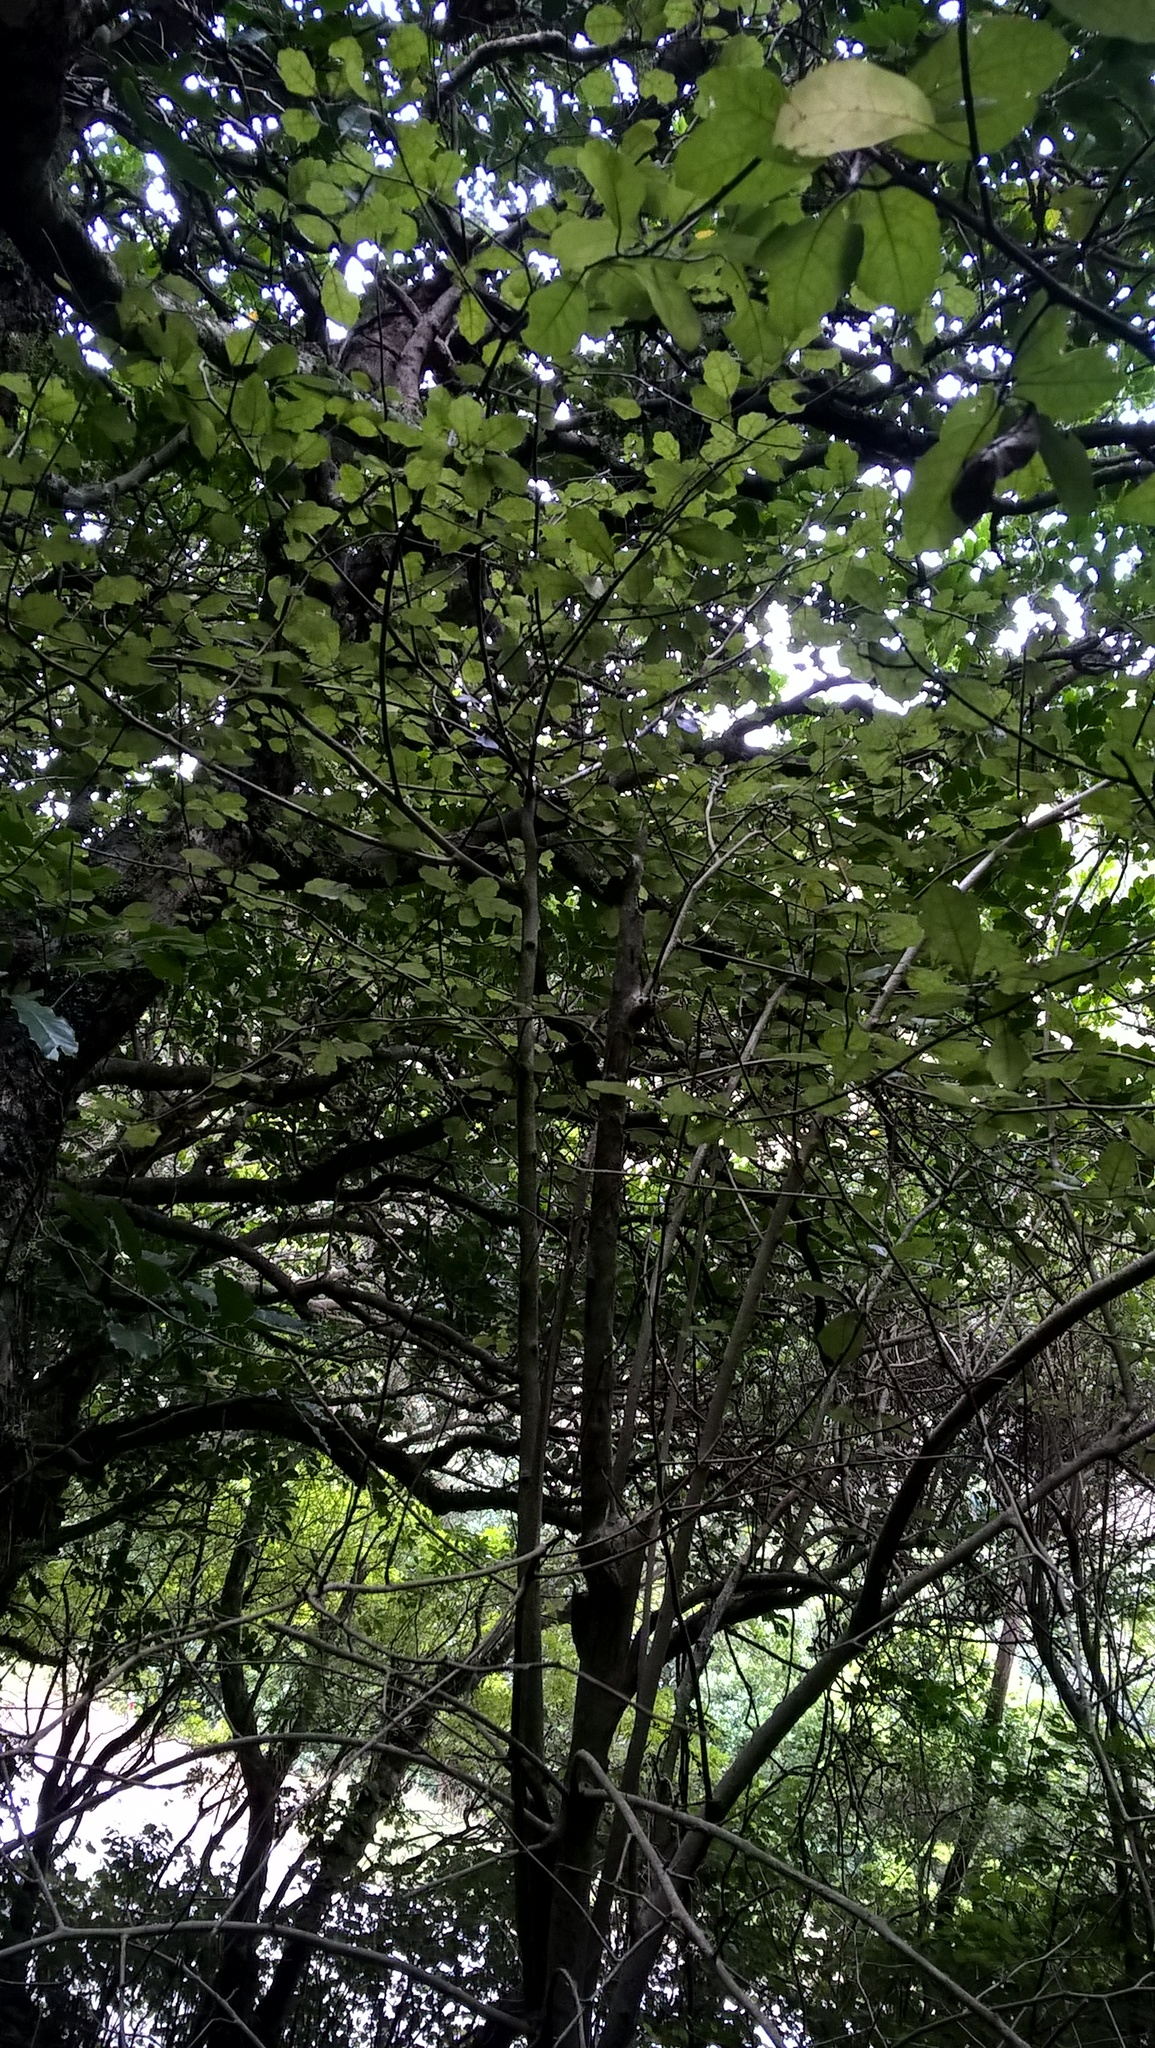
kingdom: Plantae
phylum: Tracheophyta
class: Magnoliopsida
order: Apiales
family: Pennantiaceae
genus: Pennantia
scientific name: Pennantia corymbosa
